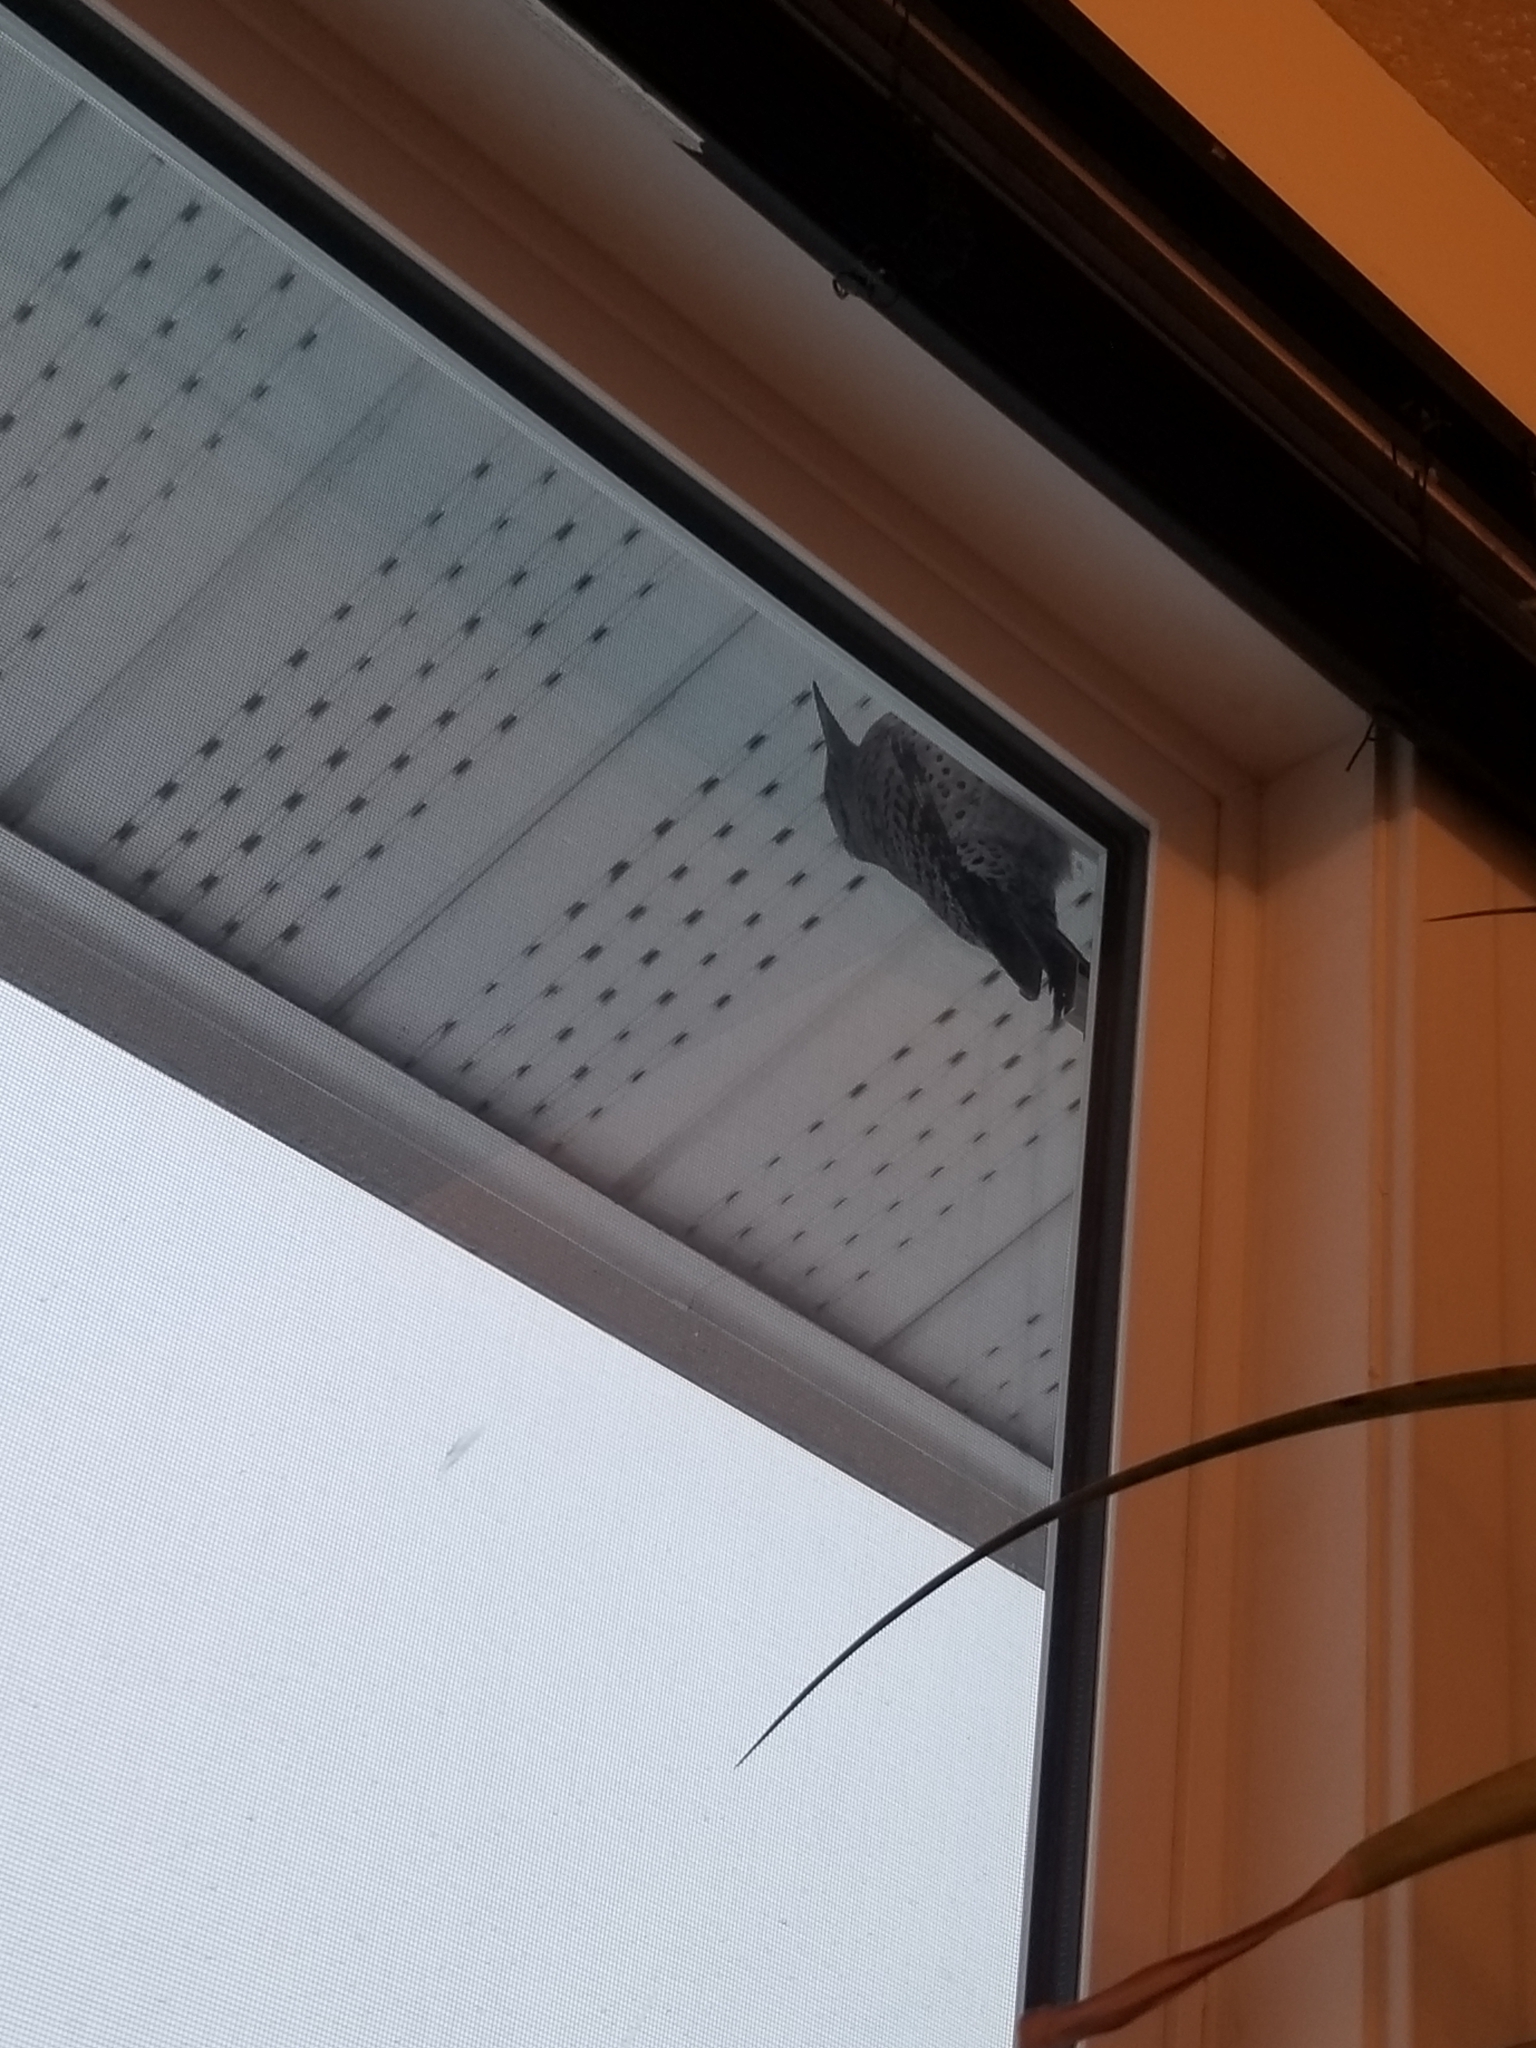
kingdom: Animalia
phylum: Chordata
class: Aves
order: Piciformes
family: Picidae
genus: Colaptes
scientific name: Colaptes auratus
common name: Northern flicker
